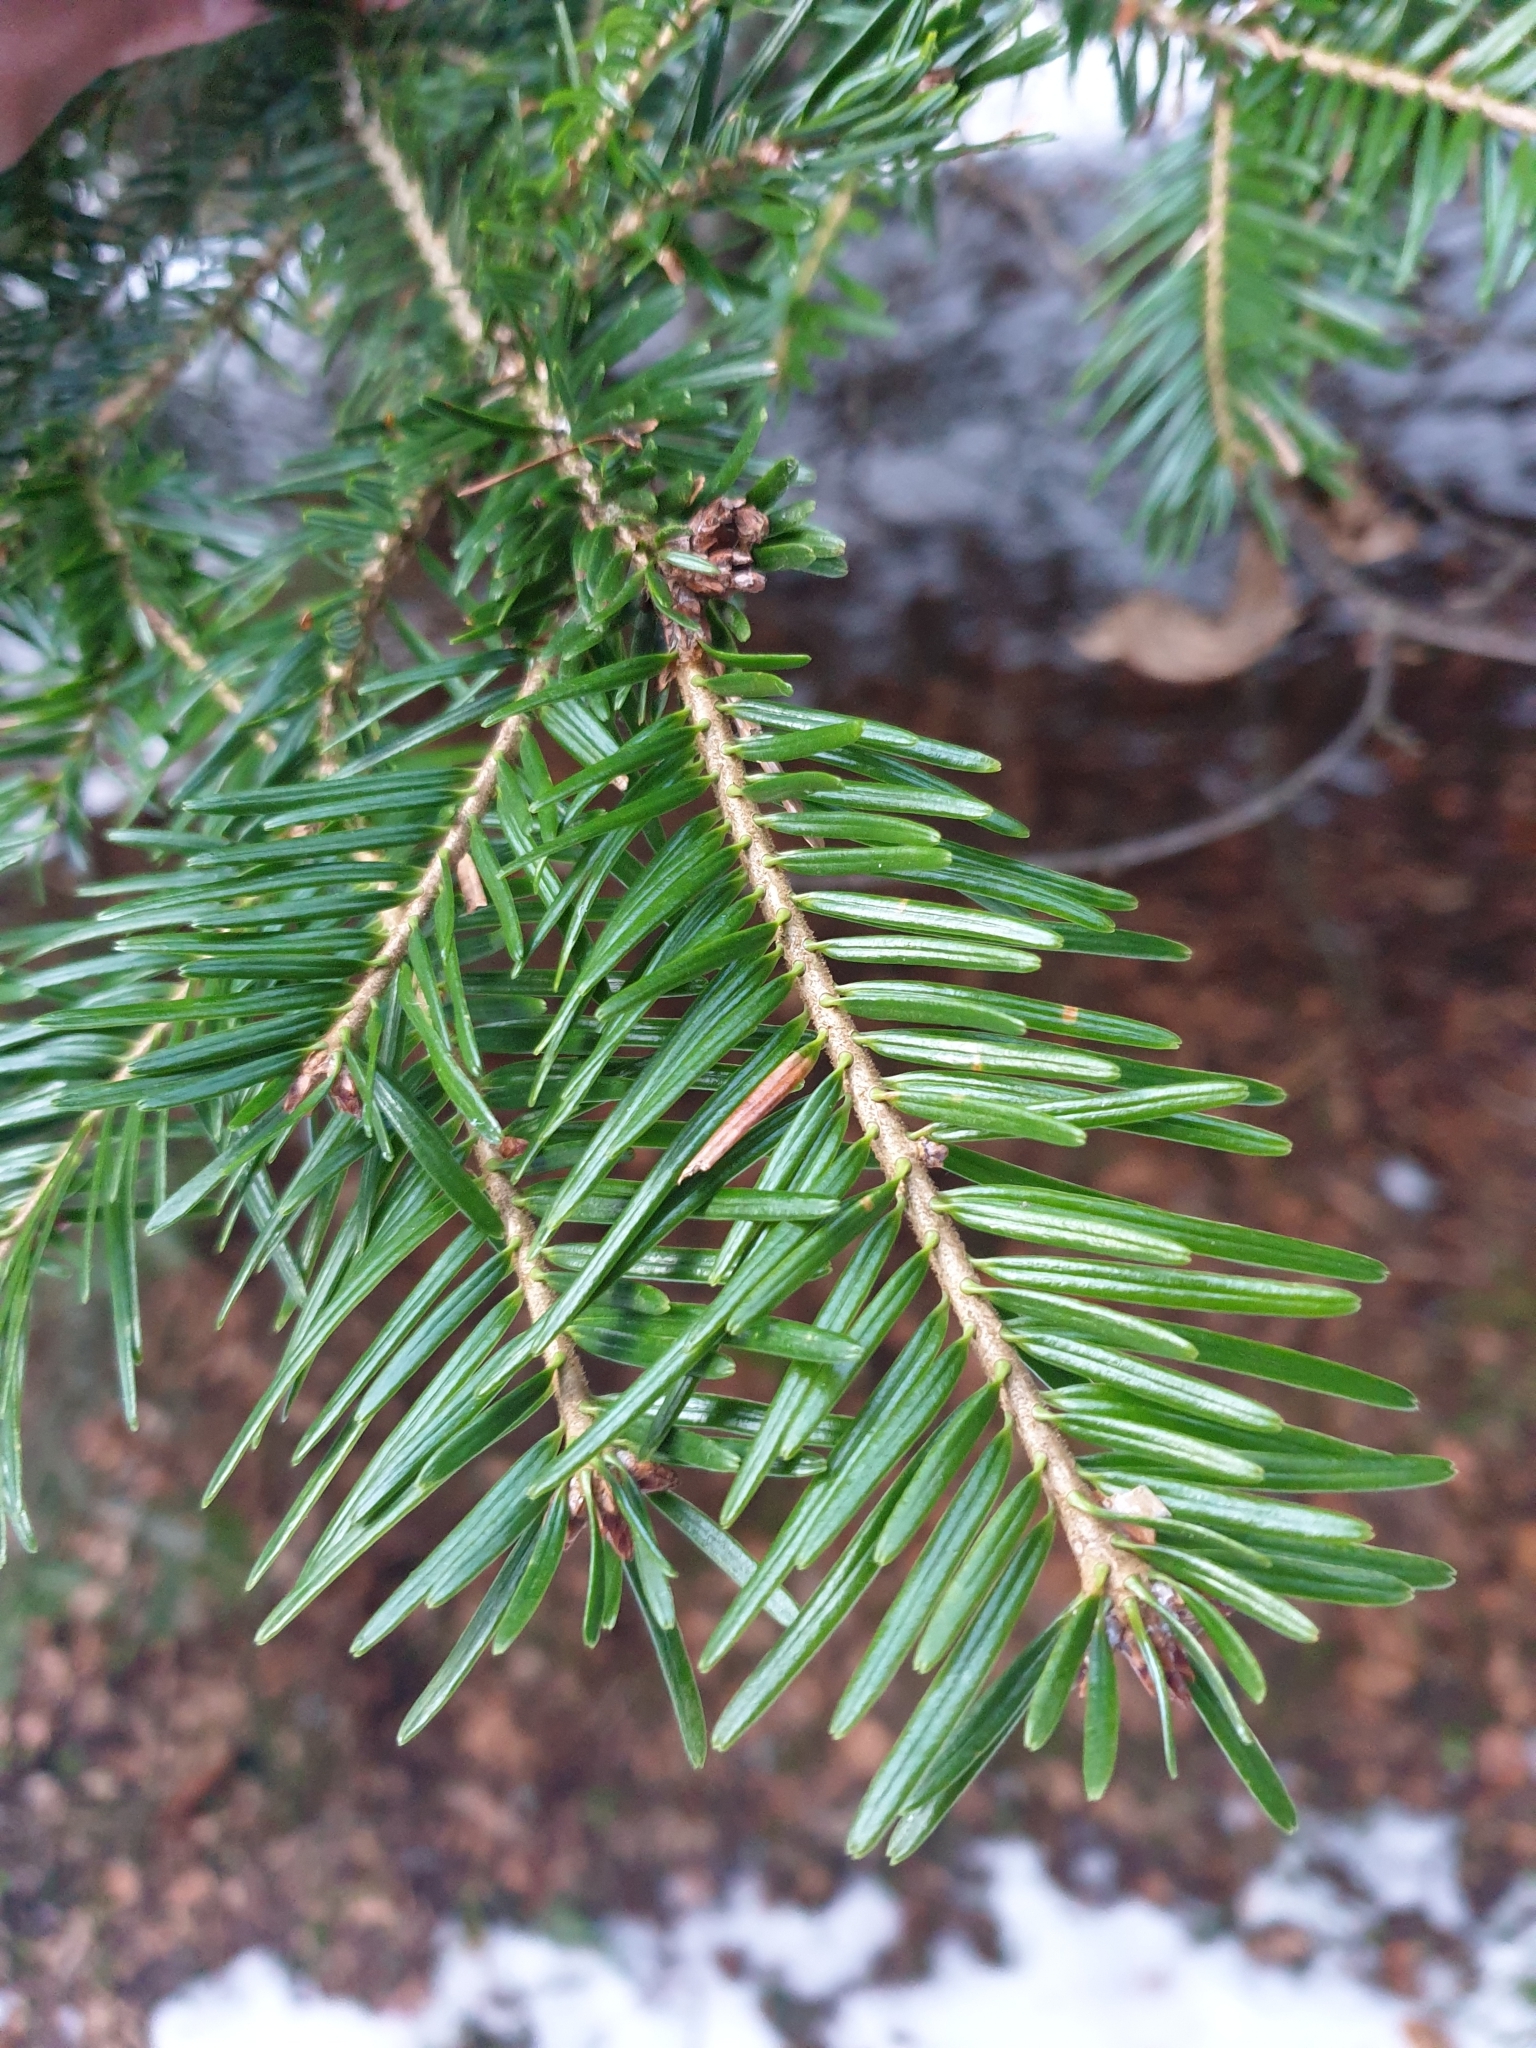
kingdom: Plantae
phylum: Tracheophyta
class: Pinopsida
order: Pinales
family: Pinaceae
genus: Abies
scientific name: Abies alba
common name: Silver fir
